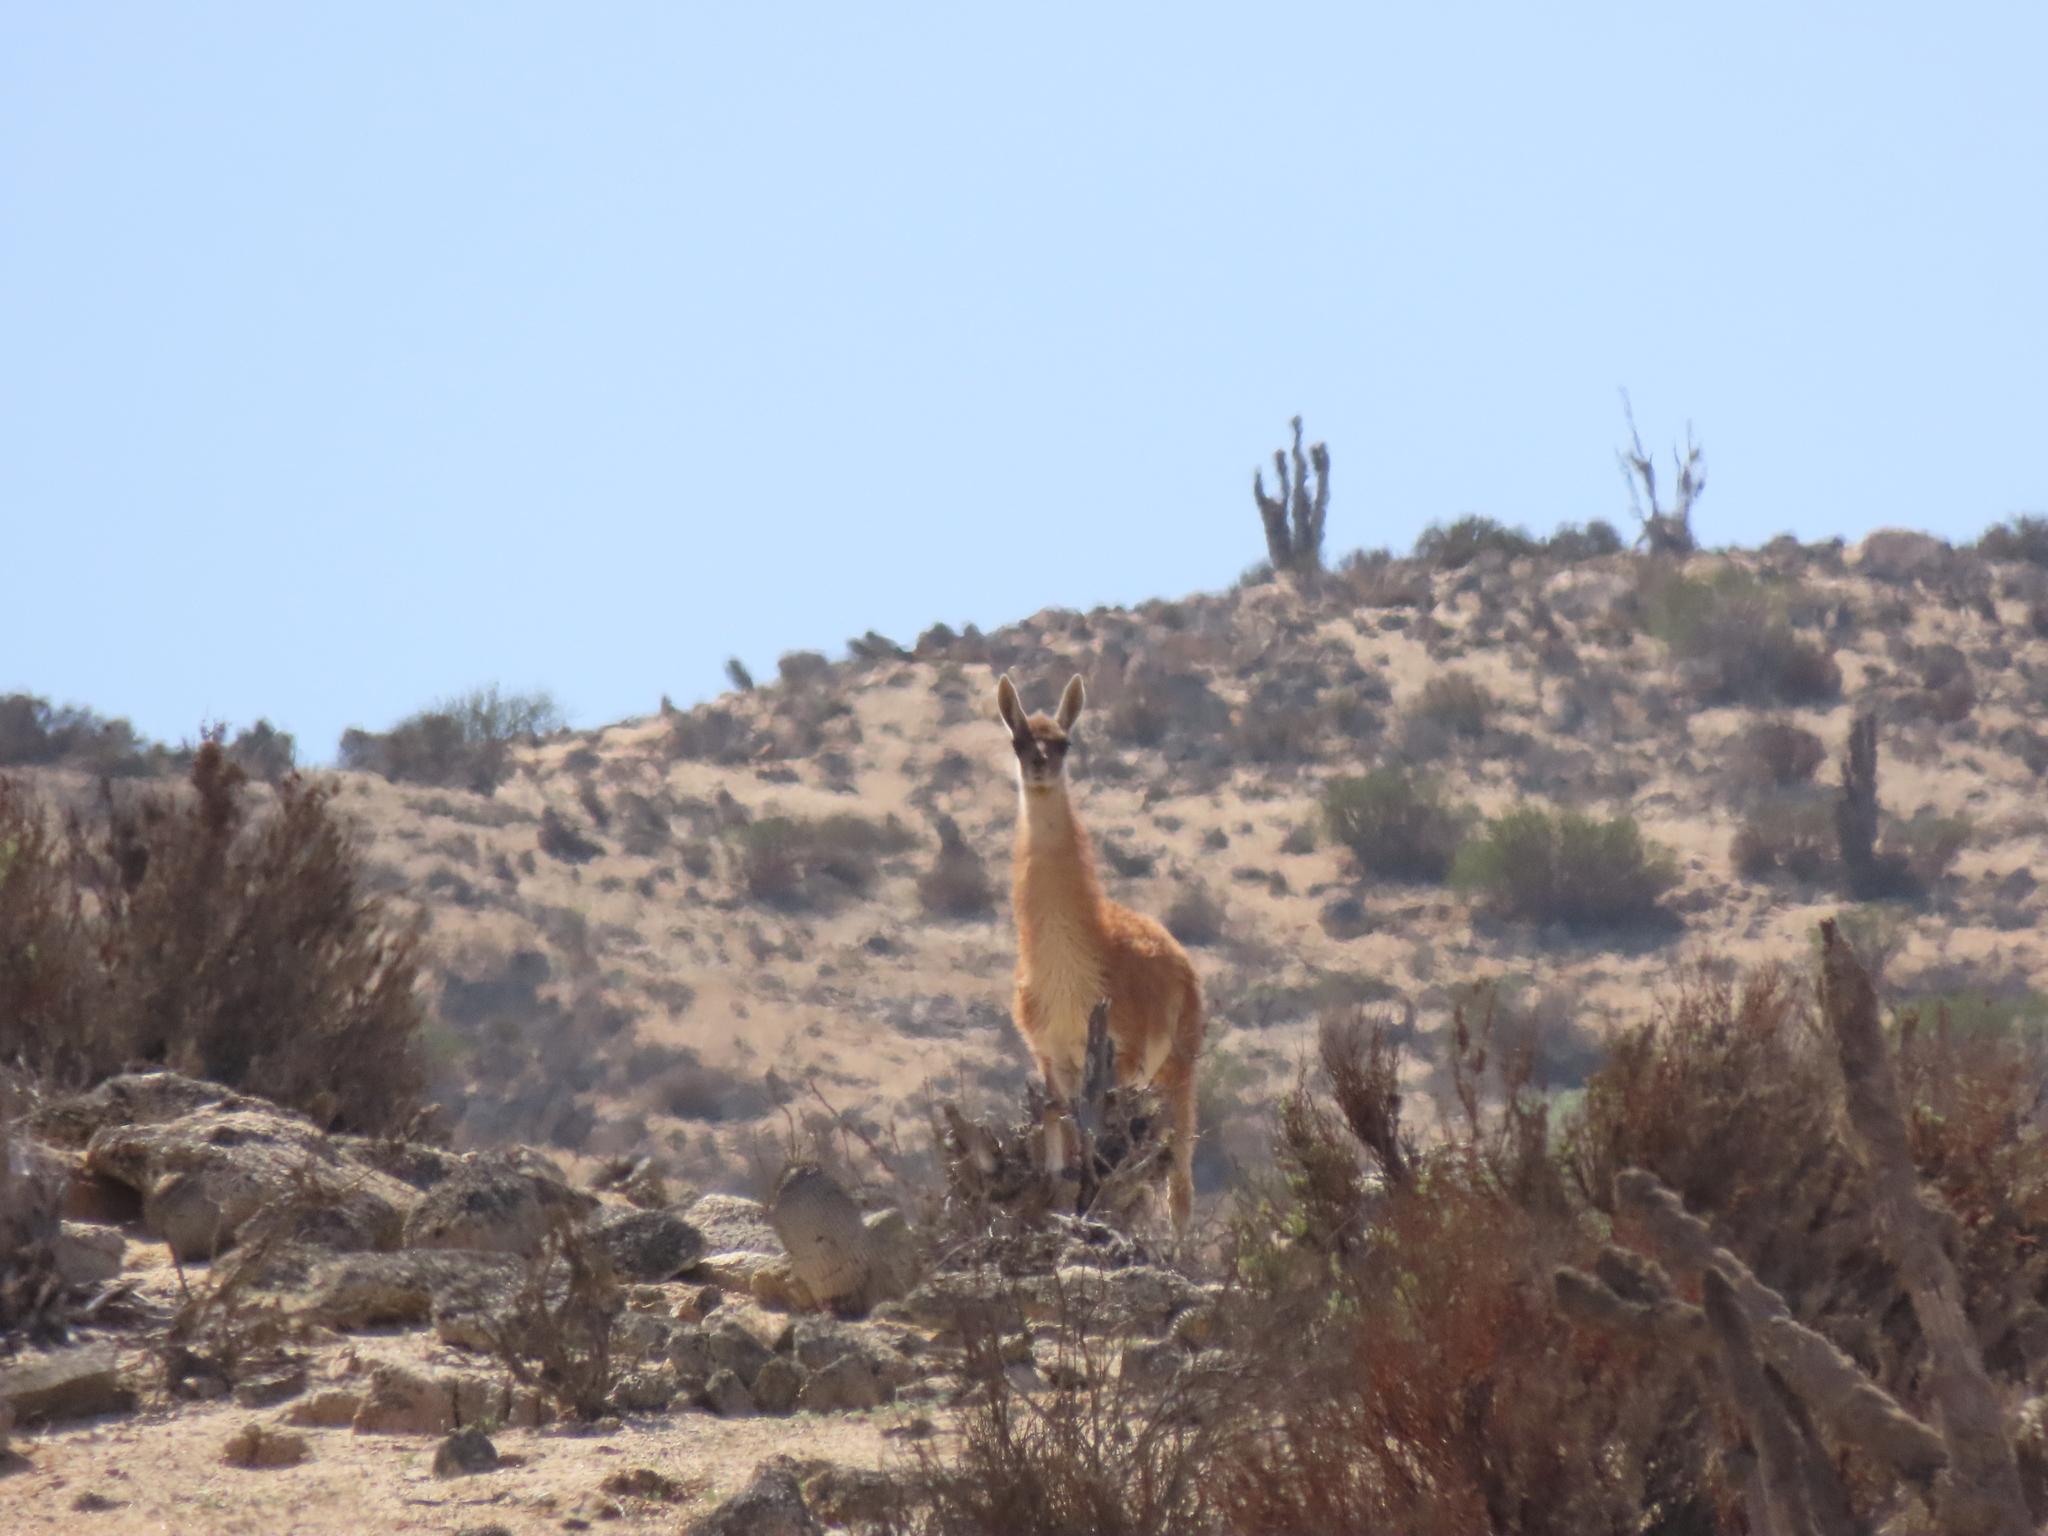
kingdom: Animalia
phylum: Chordata
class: Mammalia
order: Artiodactyla
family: Camelidae
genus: Lama
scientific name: Lama glama
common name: Llama
